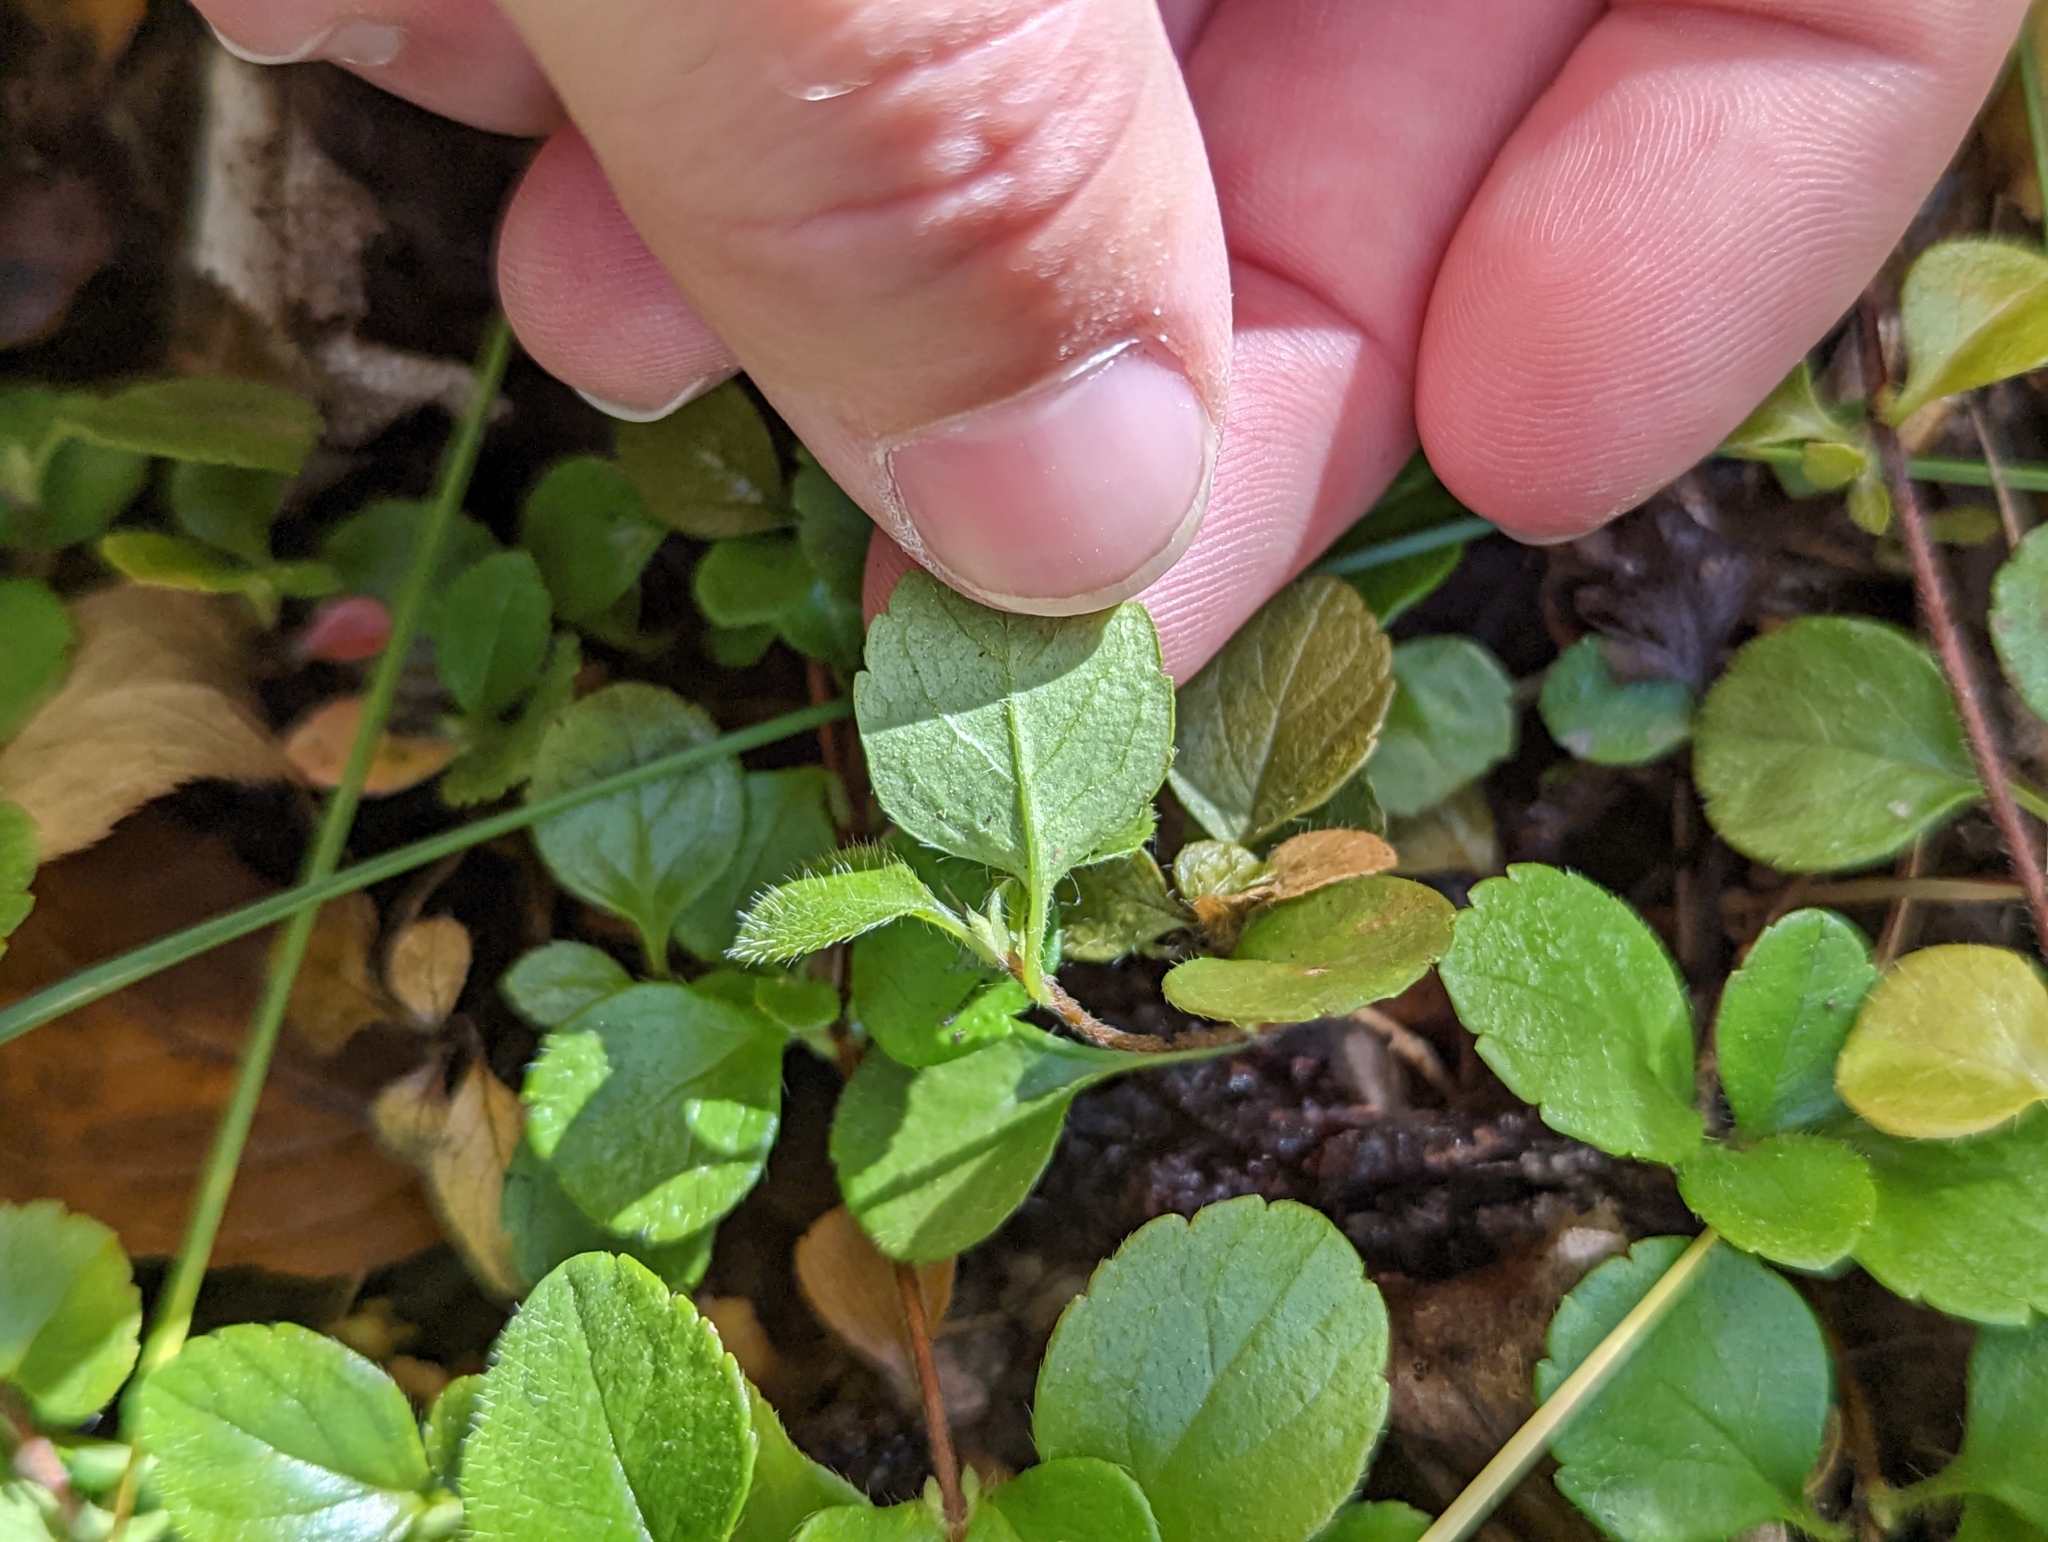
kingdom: Plantae
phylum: Tracheophyta
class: Magnoliopsida
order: Dipsacales
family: Caprifoliaceae
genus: Linnaea
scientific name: Linnaea borealis
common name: Twinflower
